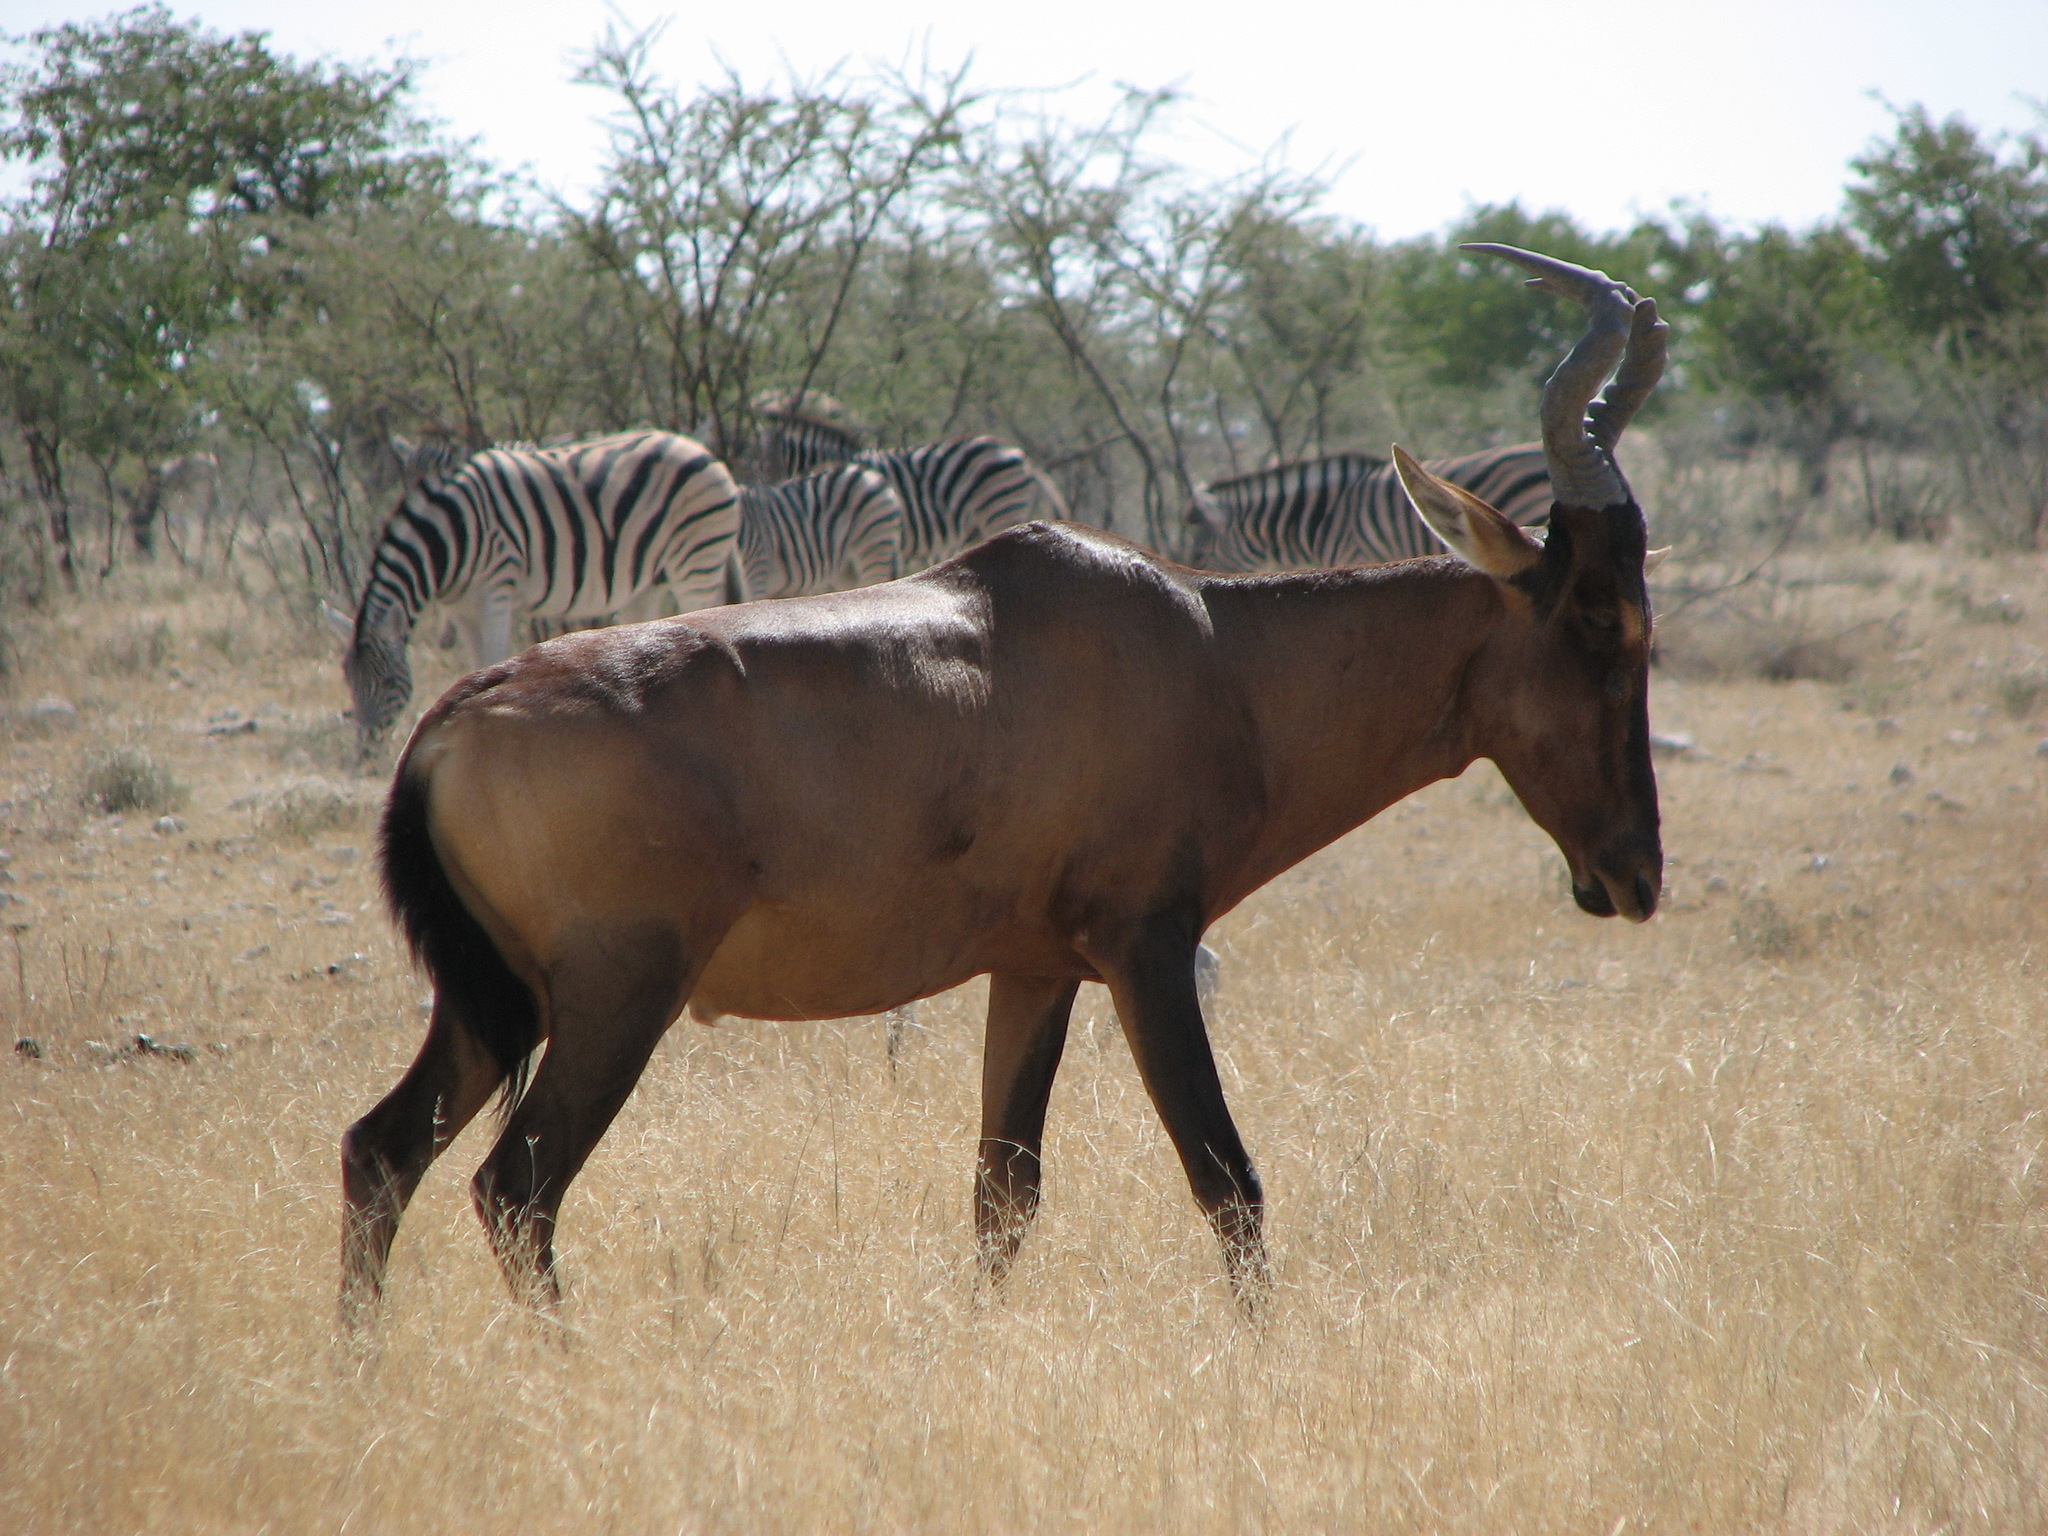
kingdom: Animalia
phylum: Chordata
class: Mammalia
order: Artiodactyla
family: Bovidae
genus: Alcelaphus
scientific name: Alcelaphus caama
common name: Red hartebeest
